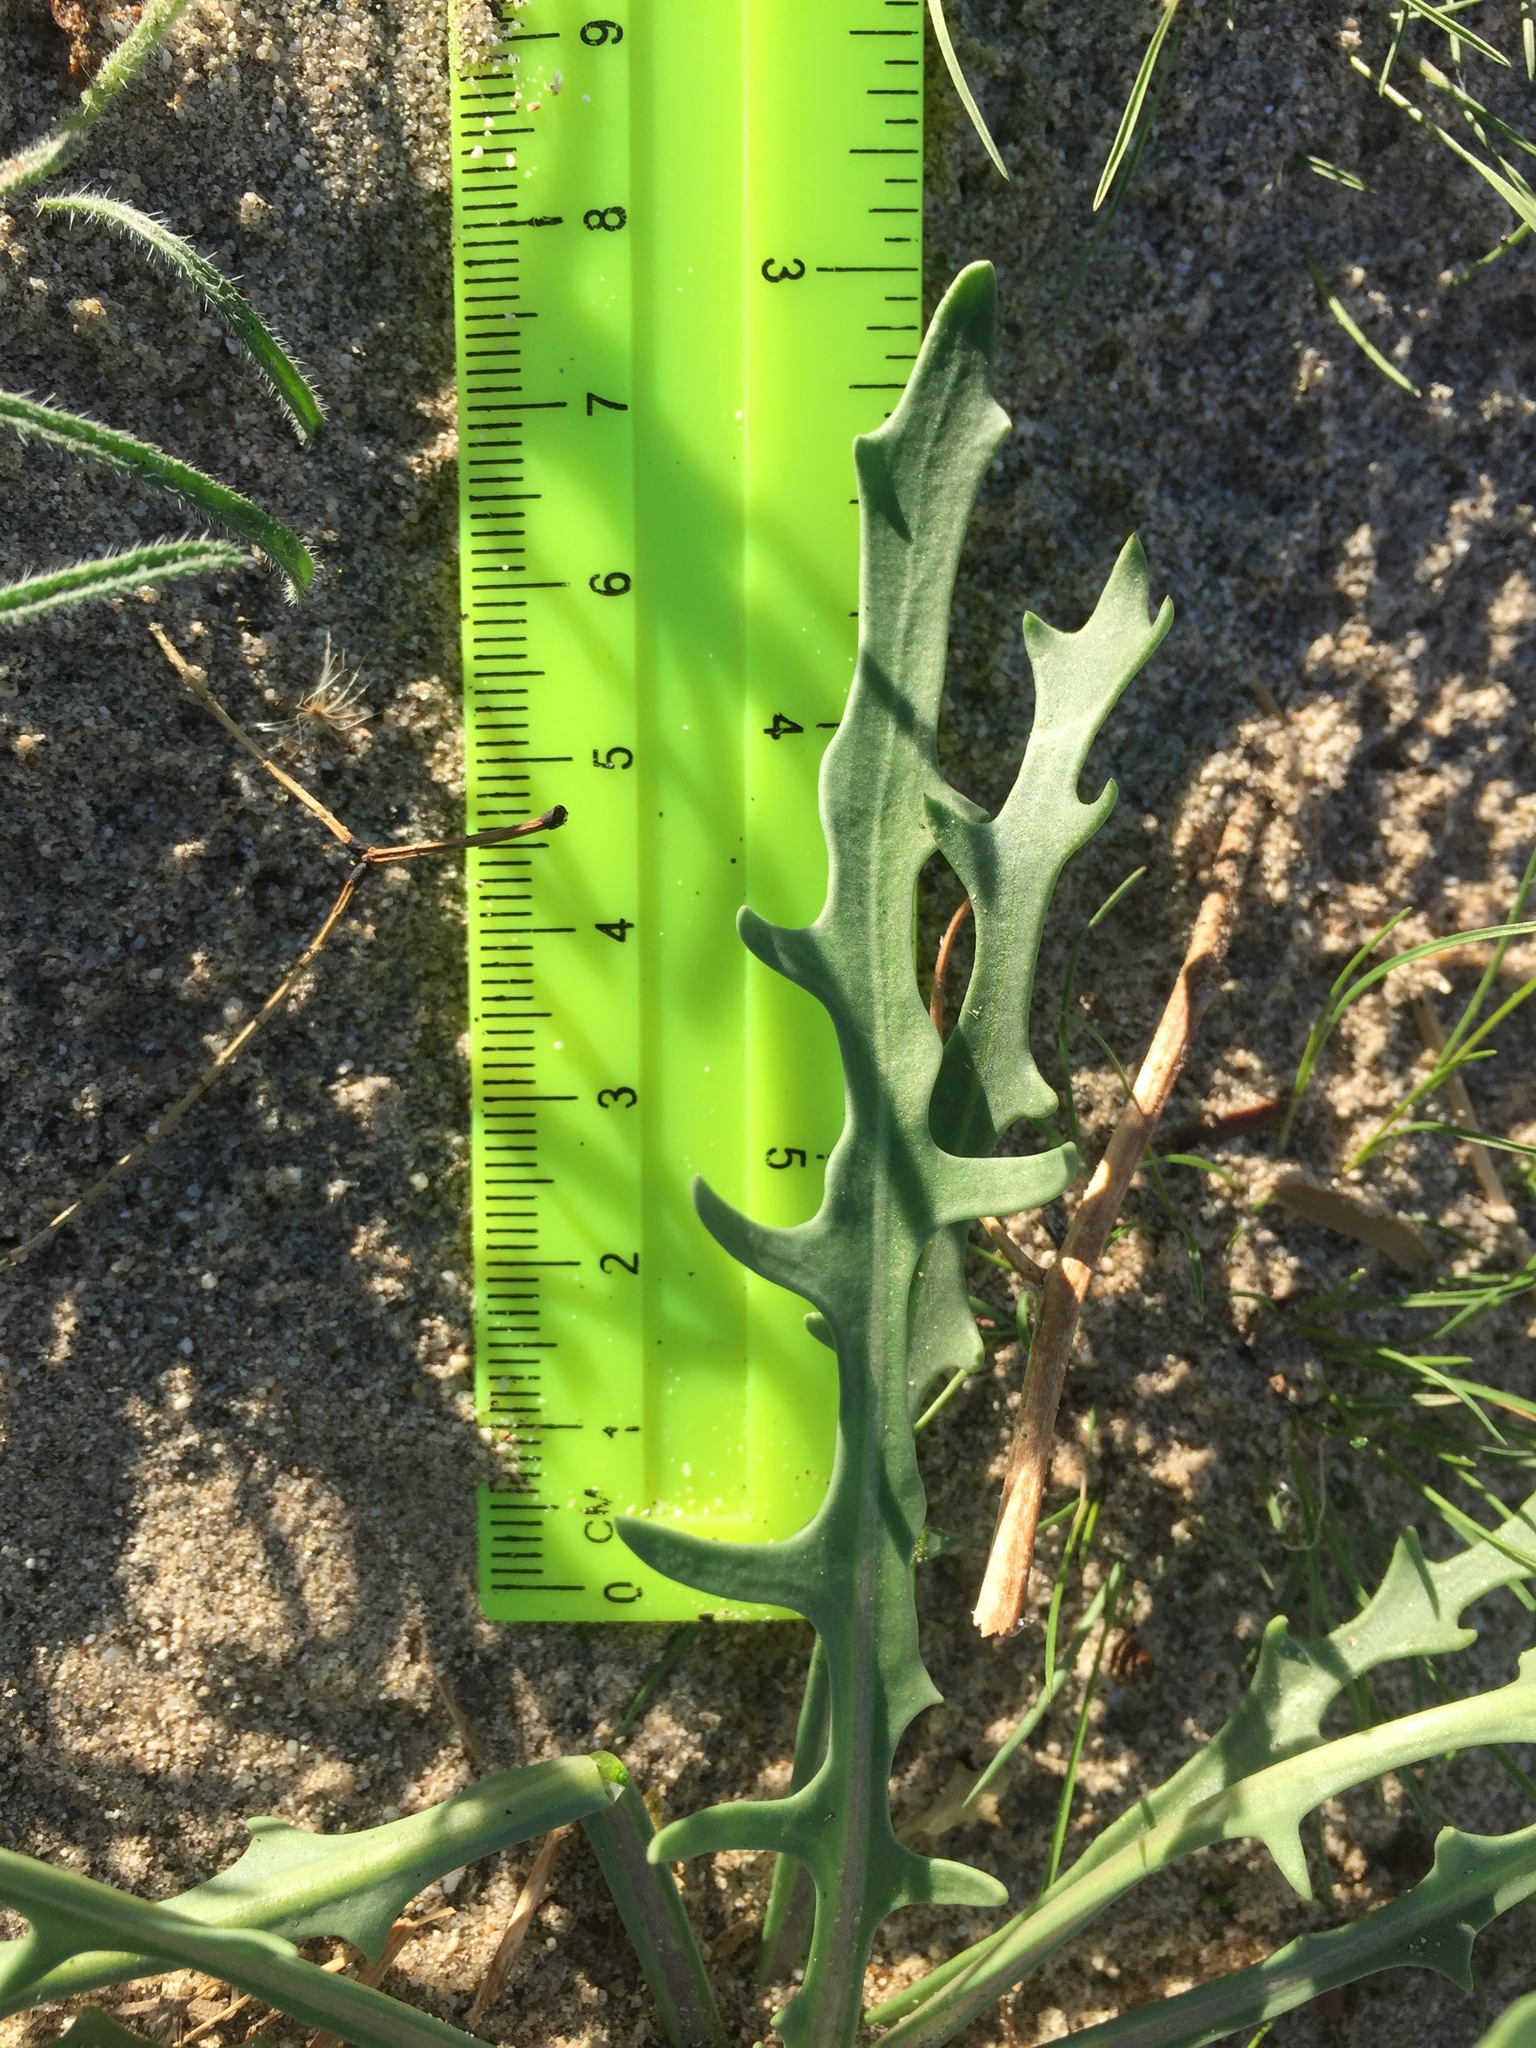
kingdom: Plantae
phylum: Tracheophyta
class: Magnoliopsida
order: Brassicales
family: Brassicaceae
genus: Streptanthus
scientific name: Streptanthus longirostris
